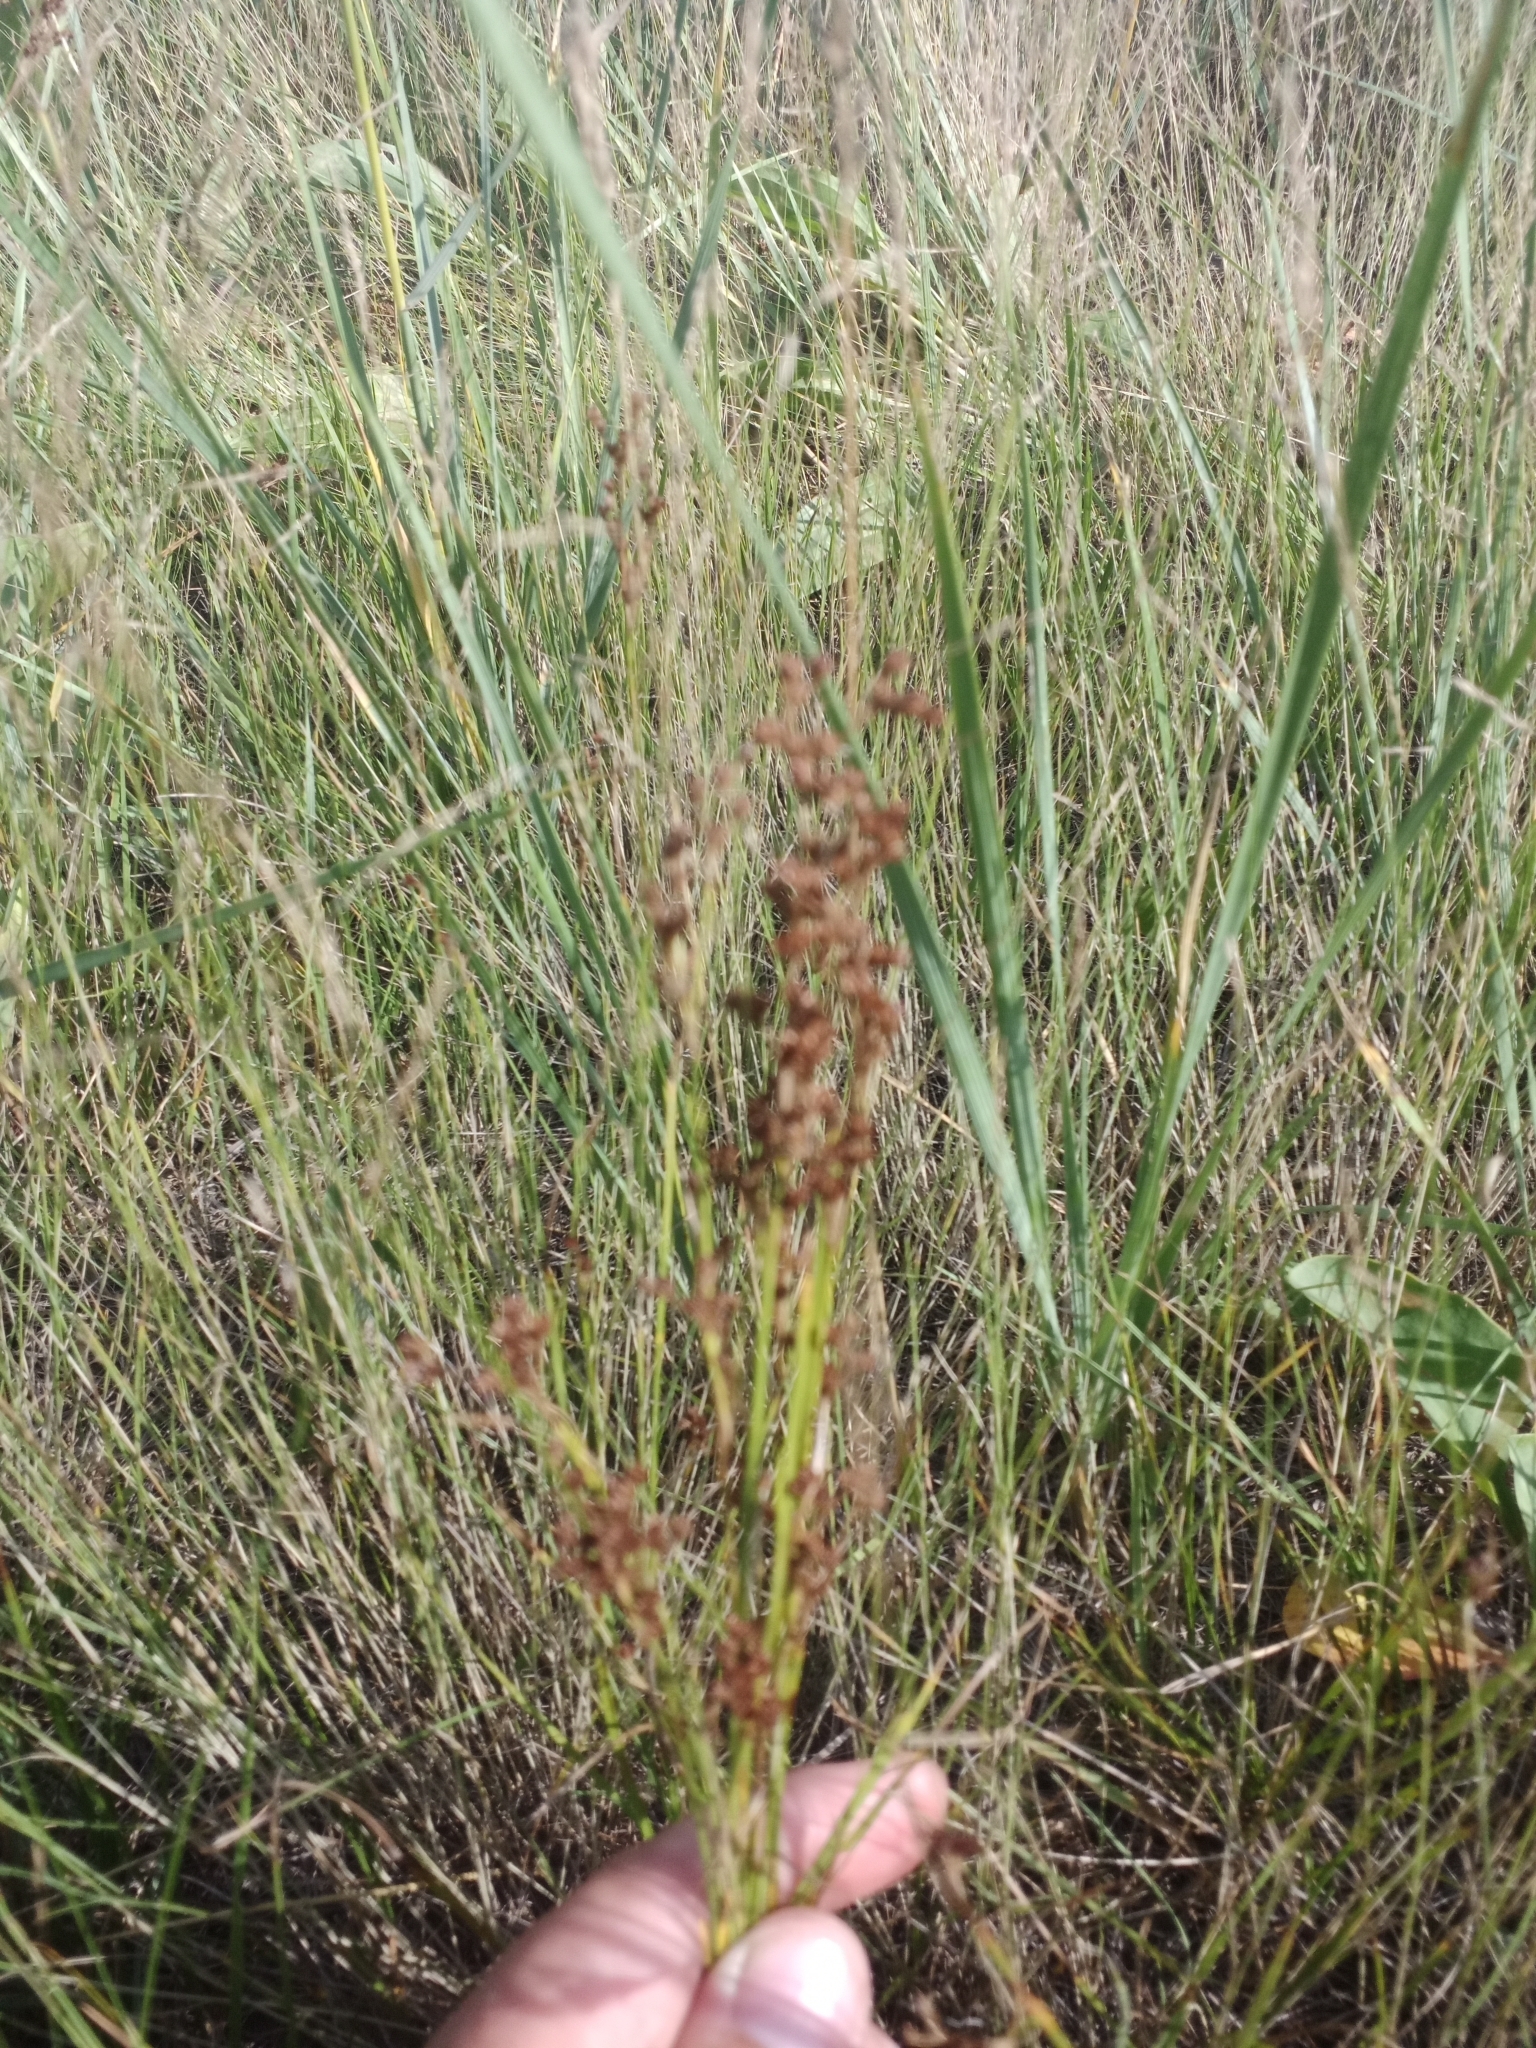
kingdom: Plantae
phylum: Tracheophyta
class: Liliopsida
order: Poales
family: Juncaceae
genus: Juncus
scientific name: Juncus compressus
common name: Round-fruited rush
